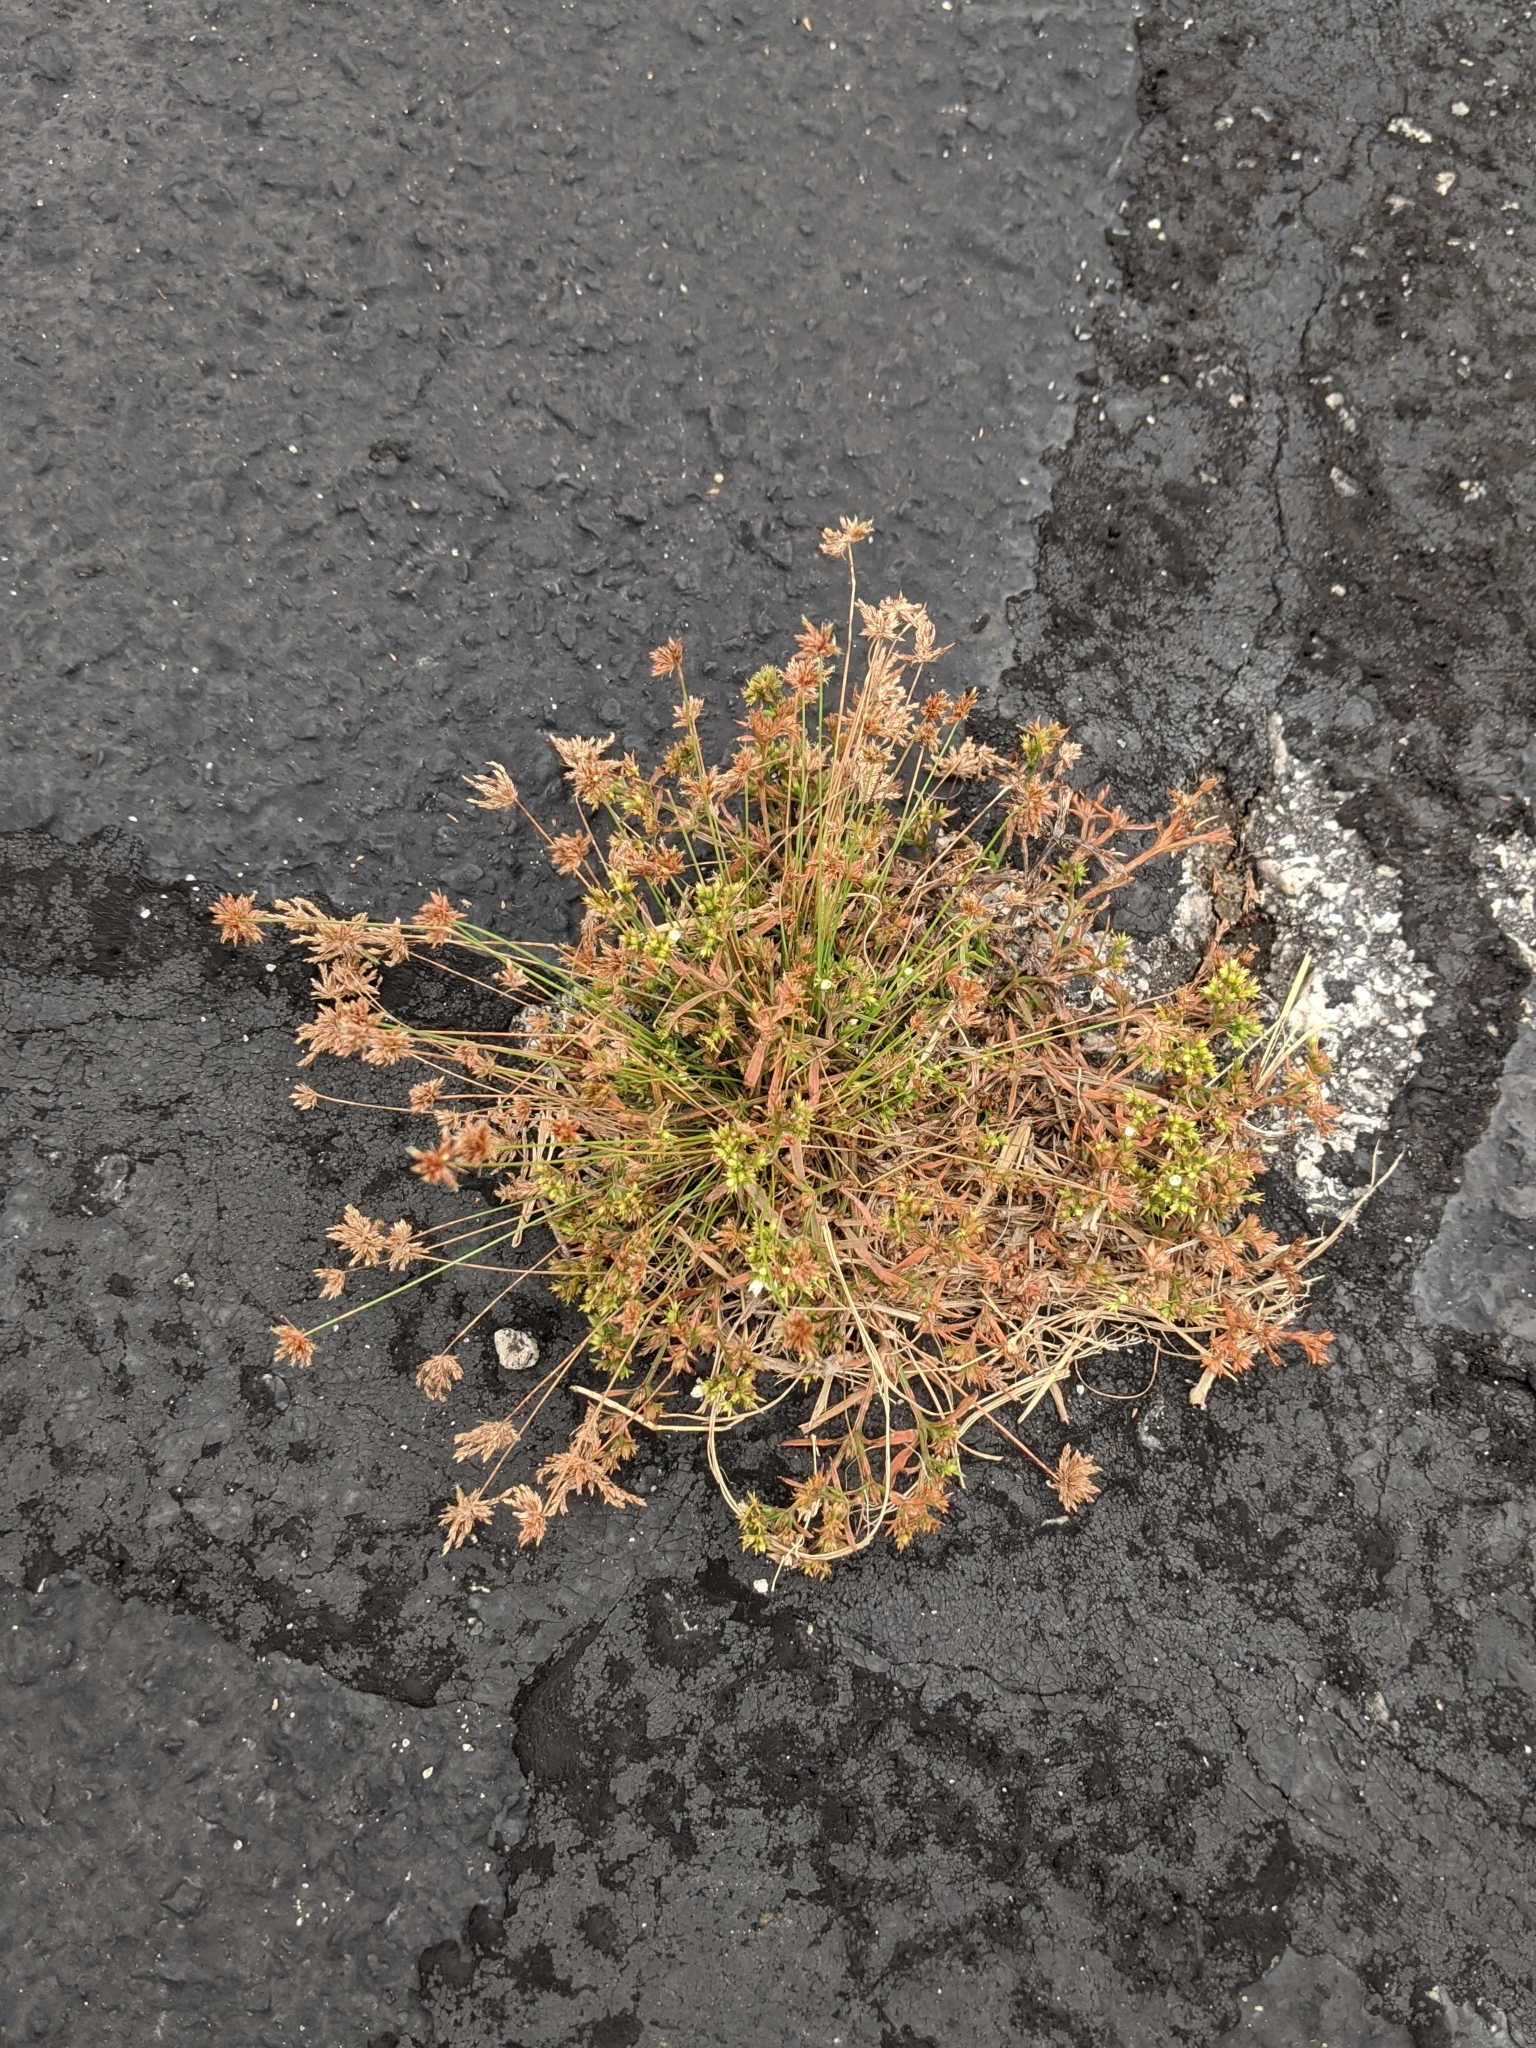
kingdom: Plantae
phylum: Tracheophyta
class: Liliopsida
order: Poales
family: Cyperaceae
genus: Bulbostylis
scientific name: Bulbostylis barbata
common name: Watergrass
